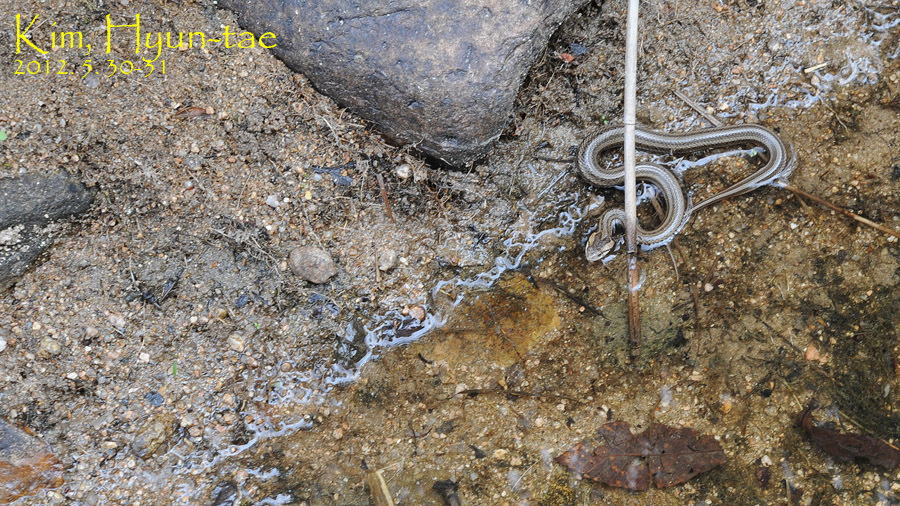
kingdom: Animalia
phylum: Chordata
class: Squamata
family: Colubridae
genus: Oocatochus
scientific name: Oocatochus rufodorsatus
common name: Frog-eating rat snake
